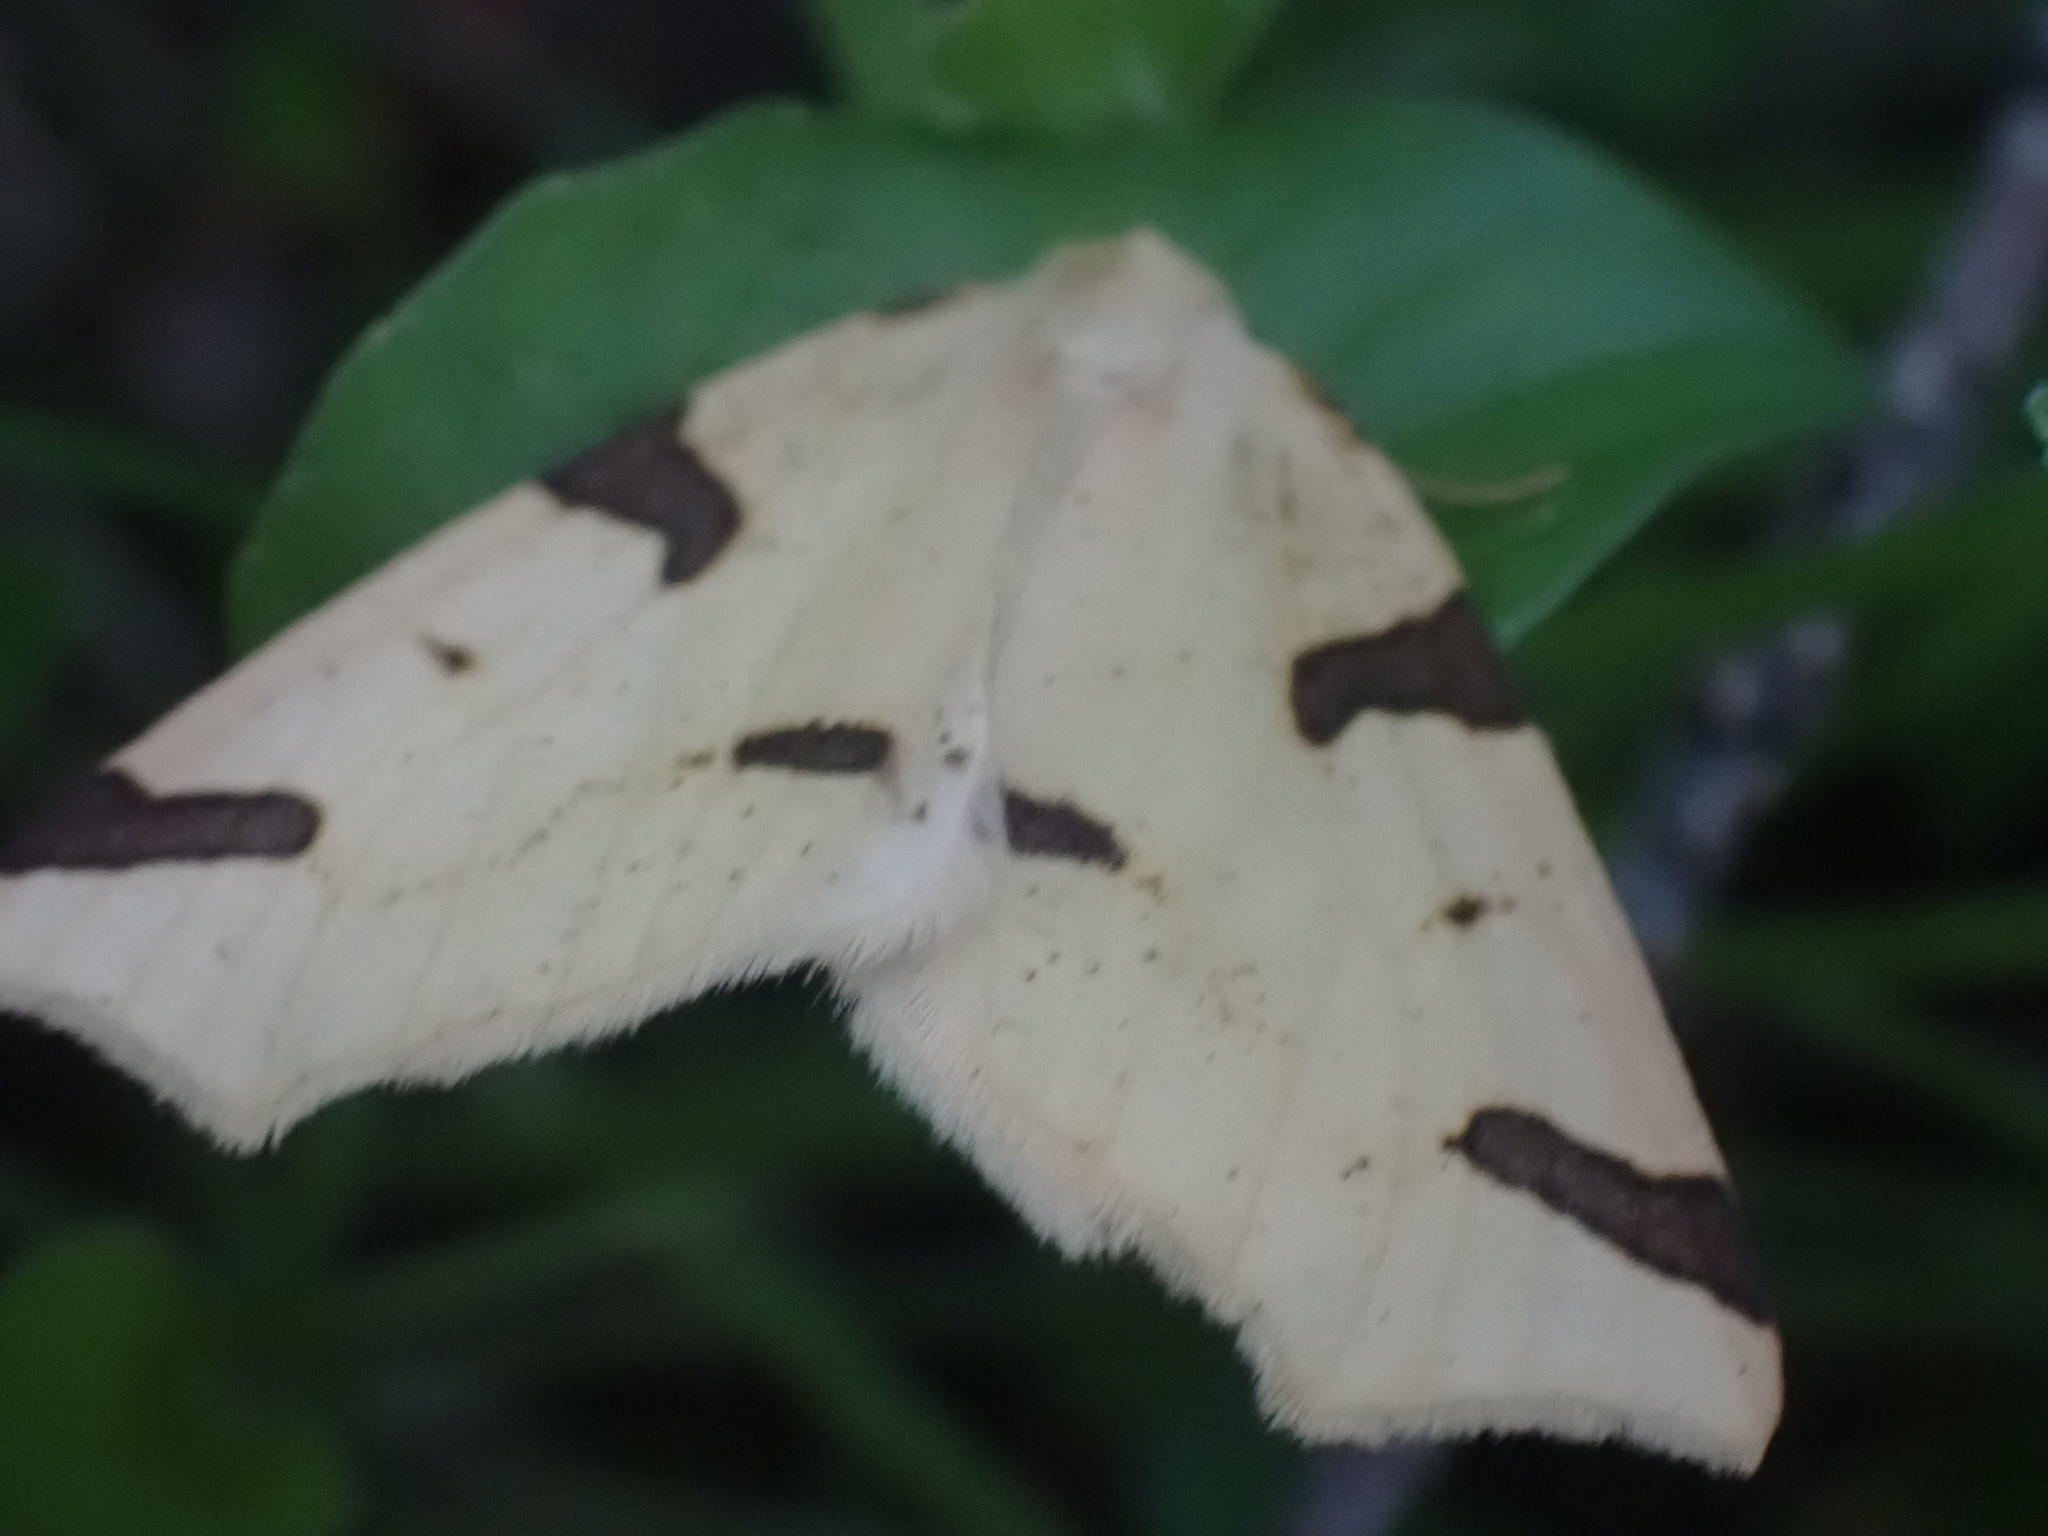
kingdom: Animalia
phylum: Arthropoda
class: Insecta
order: Lepidoptera
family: Geometridae
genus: Neoterpes
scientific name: Neoterpes trianguliferata
